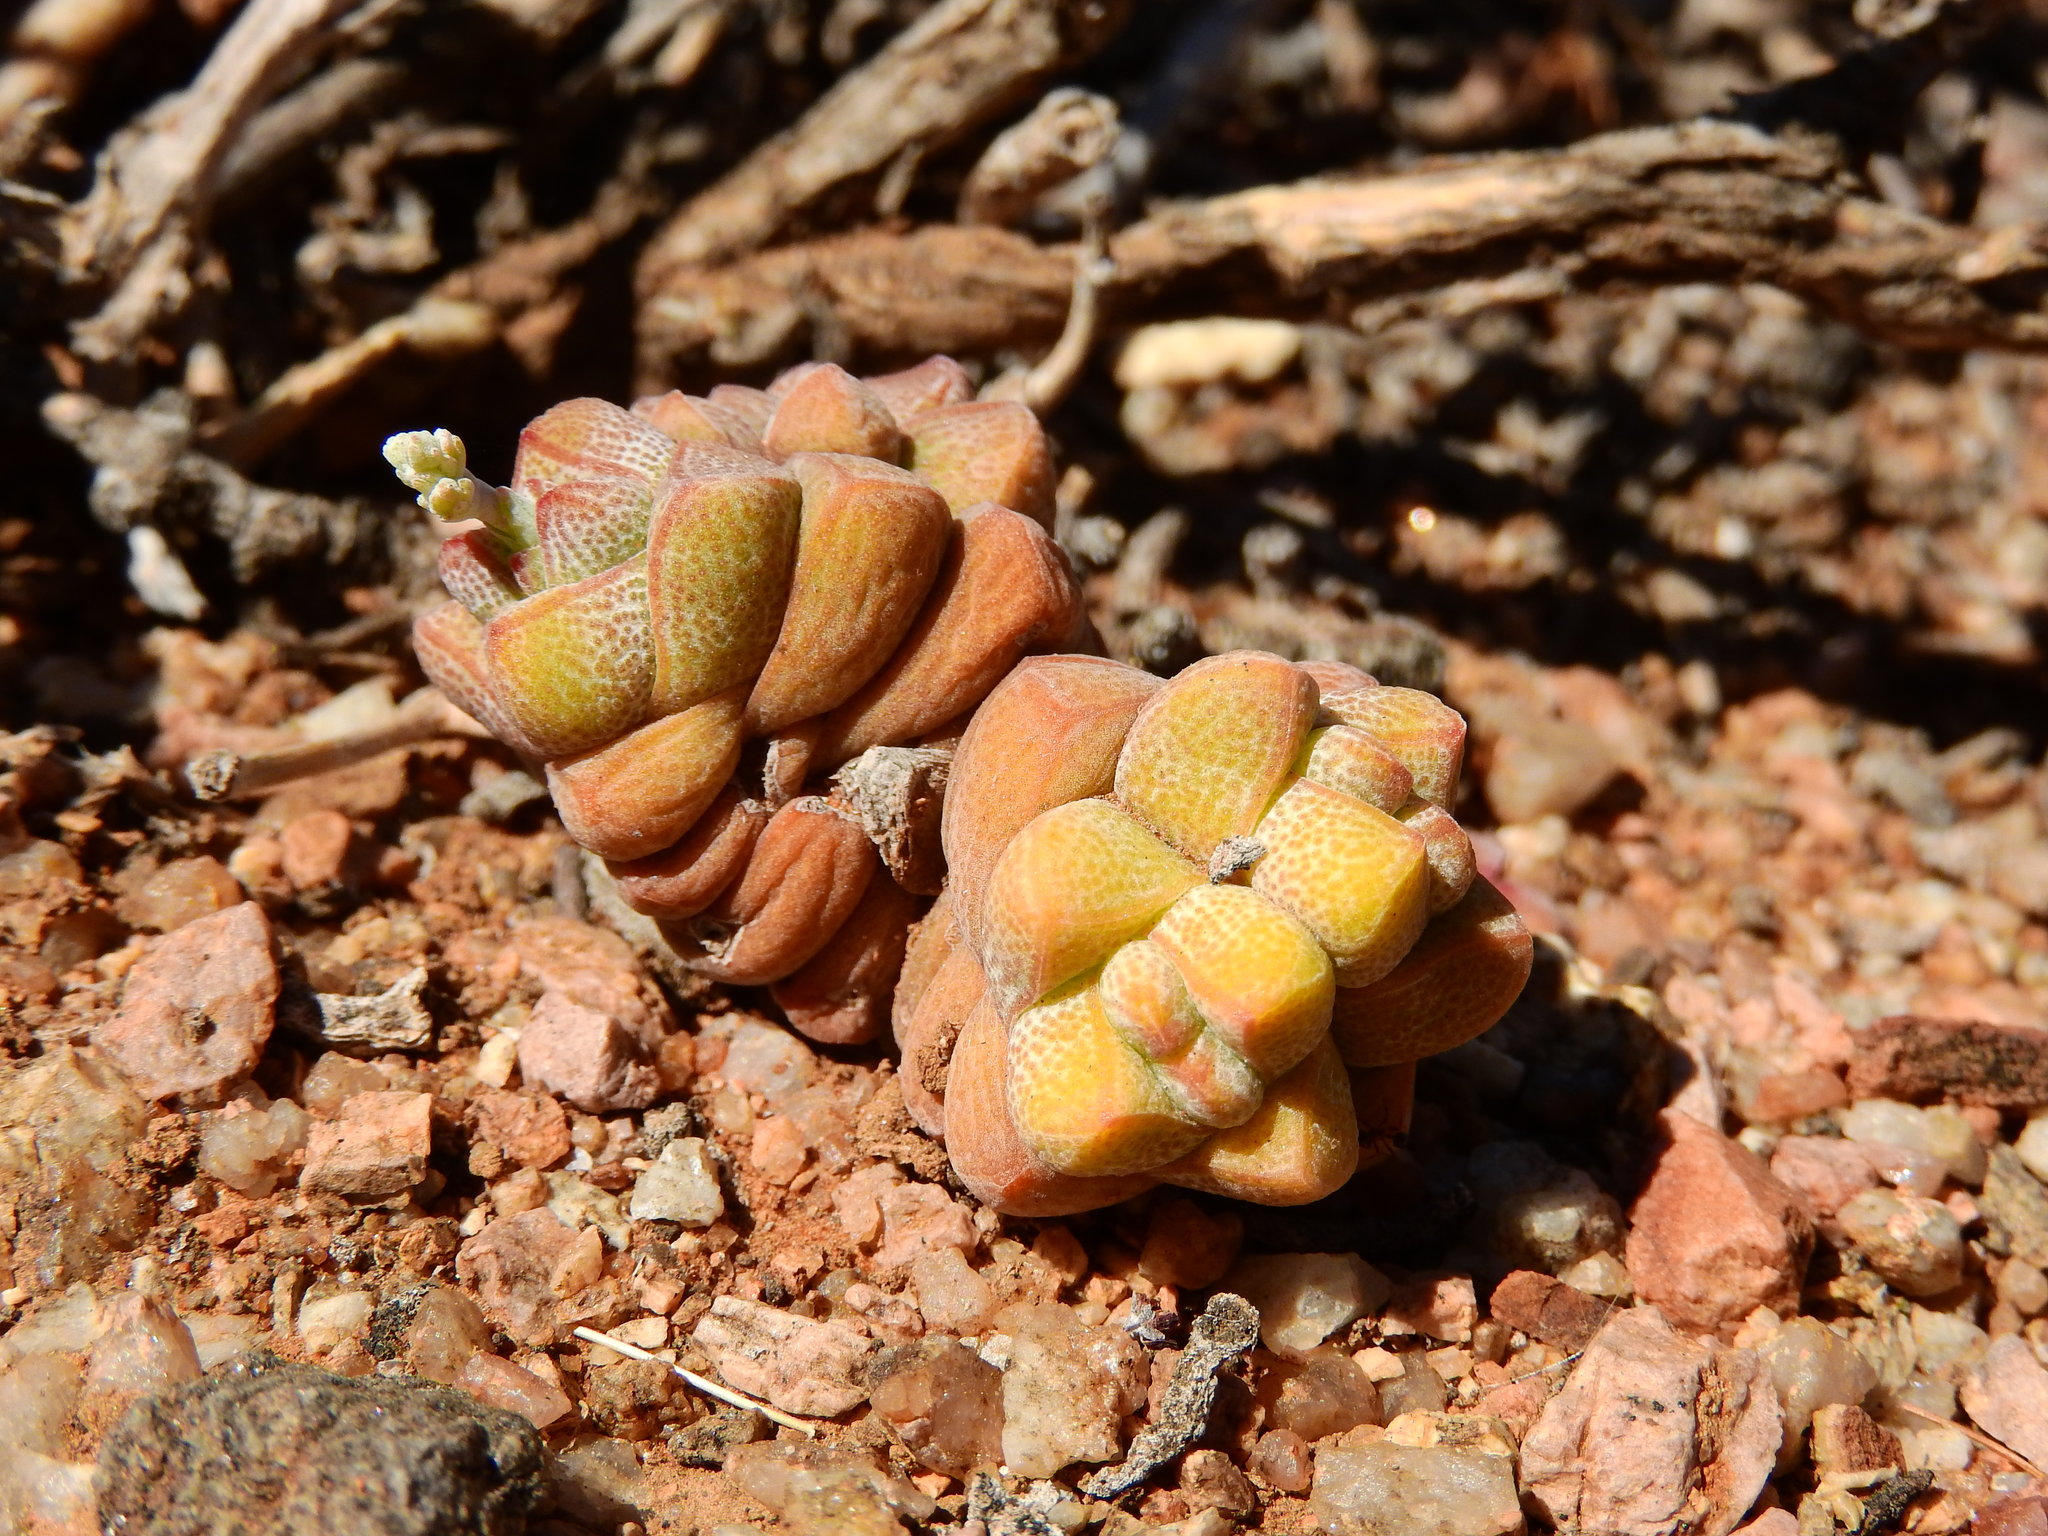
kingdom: Plantae
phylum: Tracheophyta
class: Magnoliopsida
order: Saxifragales
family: Crassulaceae
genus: Crassula
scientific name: Crassula deceptor
